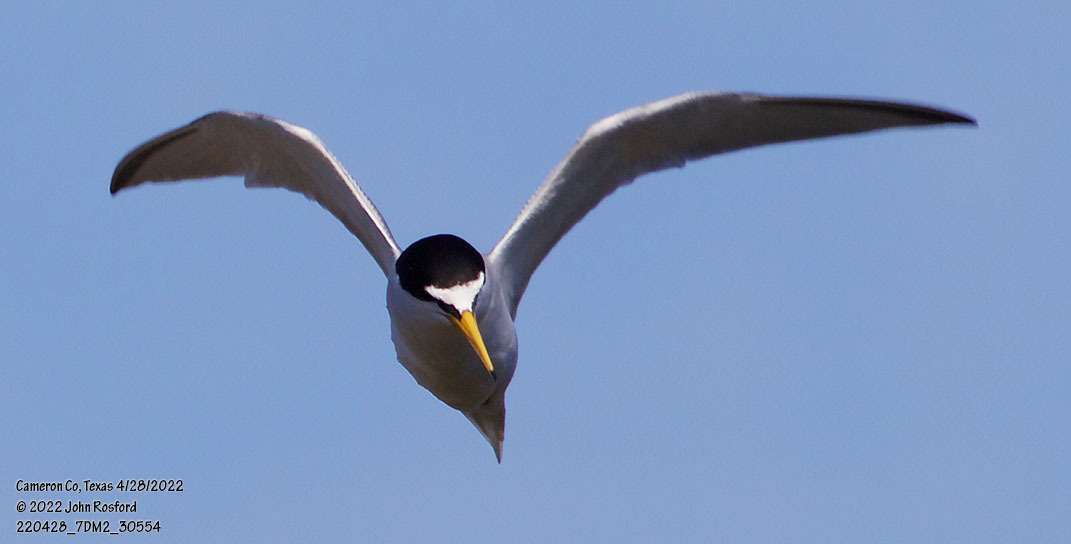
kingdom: Animalia
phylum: Chordata
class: Aves
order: Charadriiformes
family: Laridae
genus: Sternula
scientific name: Sternula antillarum
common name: Least tern
